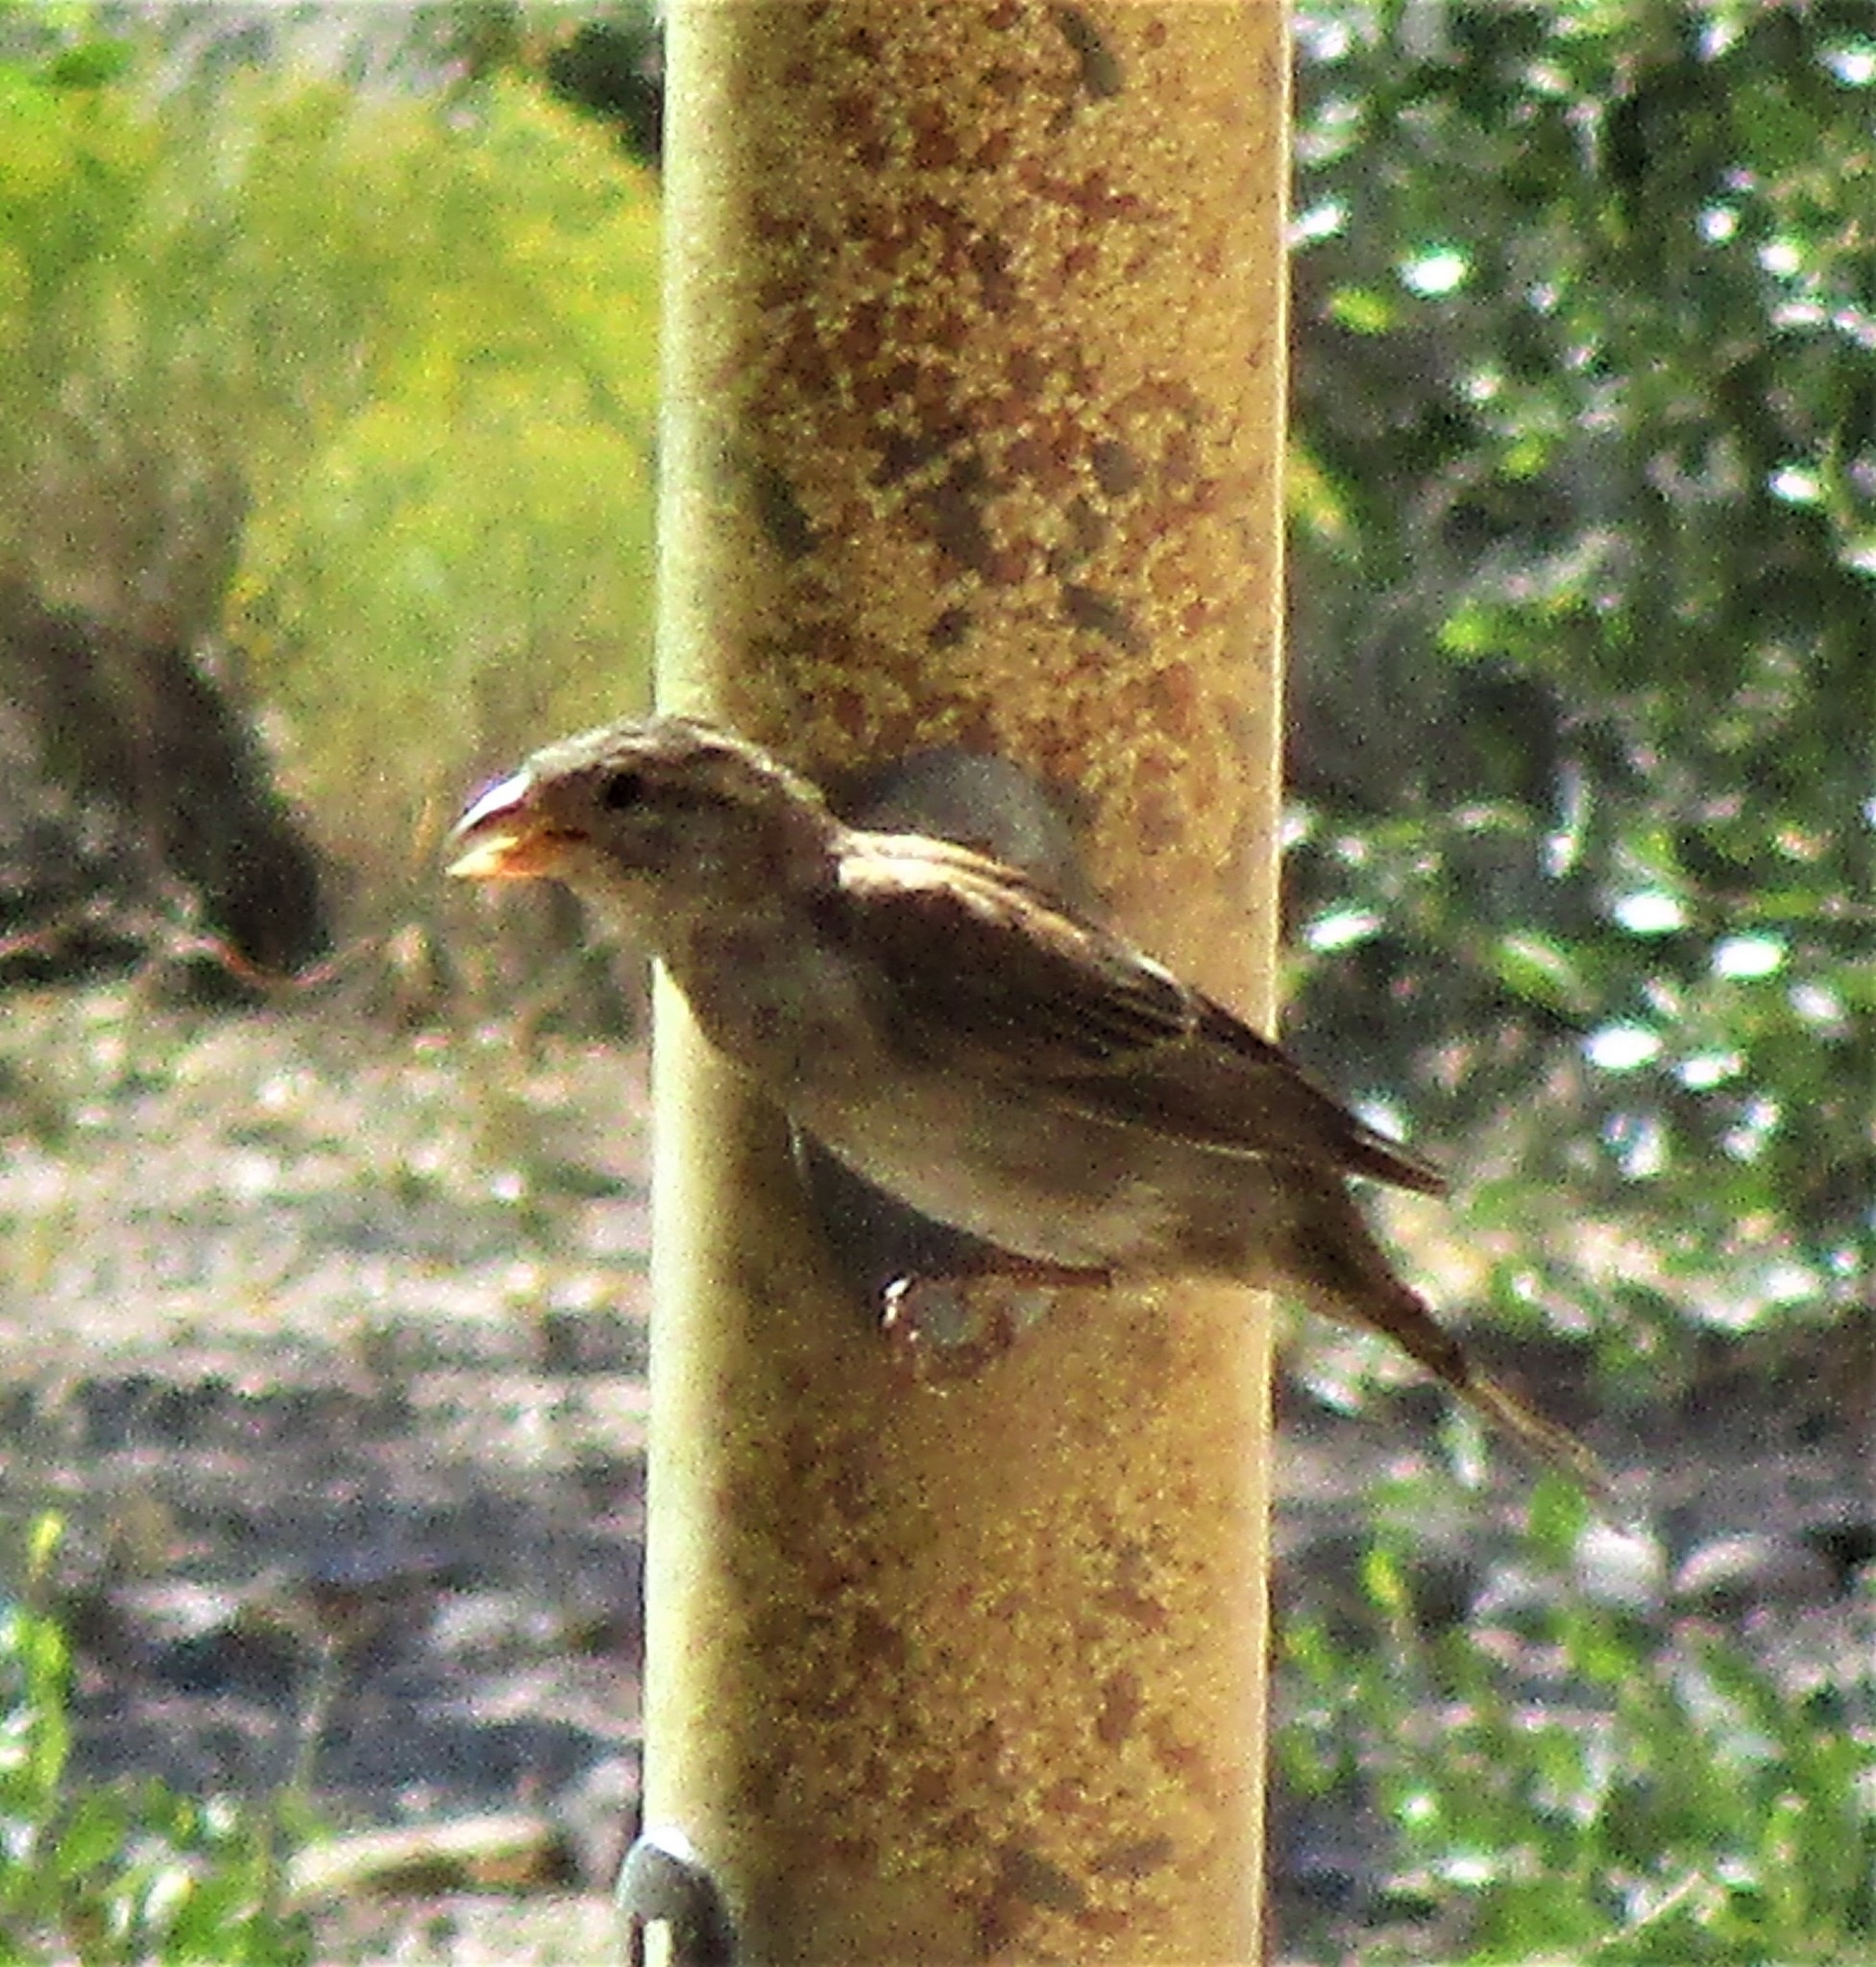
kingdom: Animalia
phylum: Chordata
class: Aves
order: Passeriformes
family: Passeridae
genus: Passer
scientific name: Passer domesticus
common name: House sparrow
